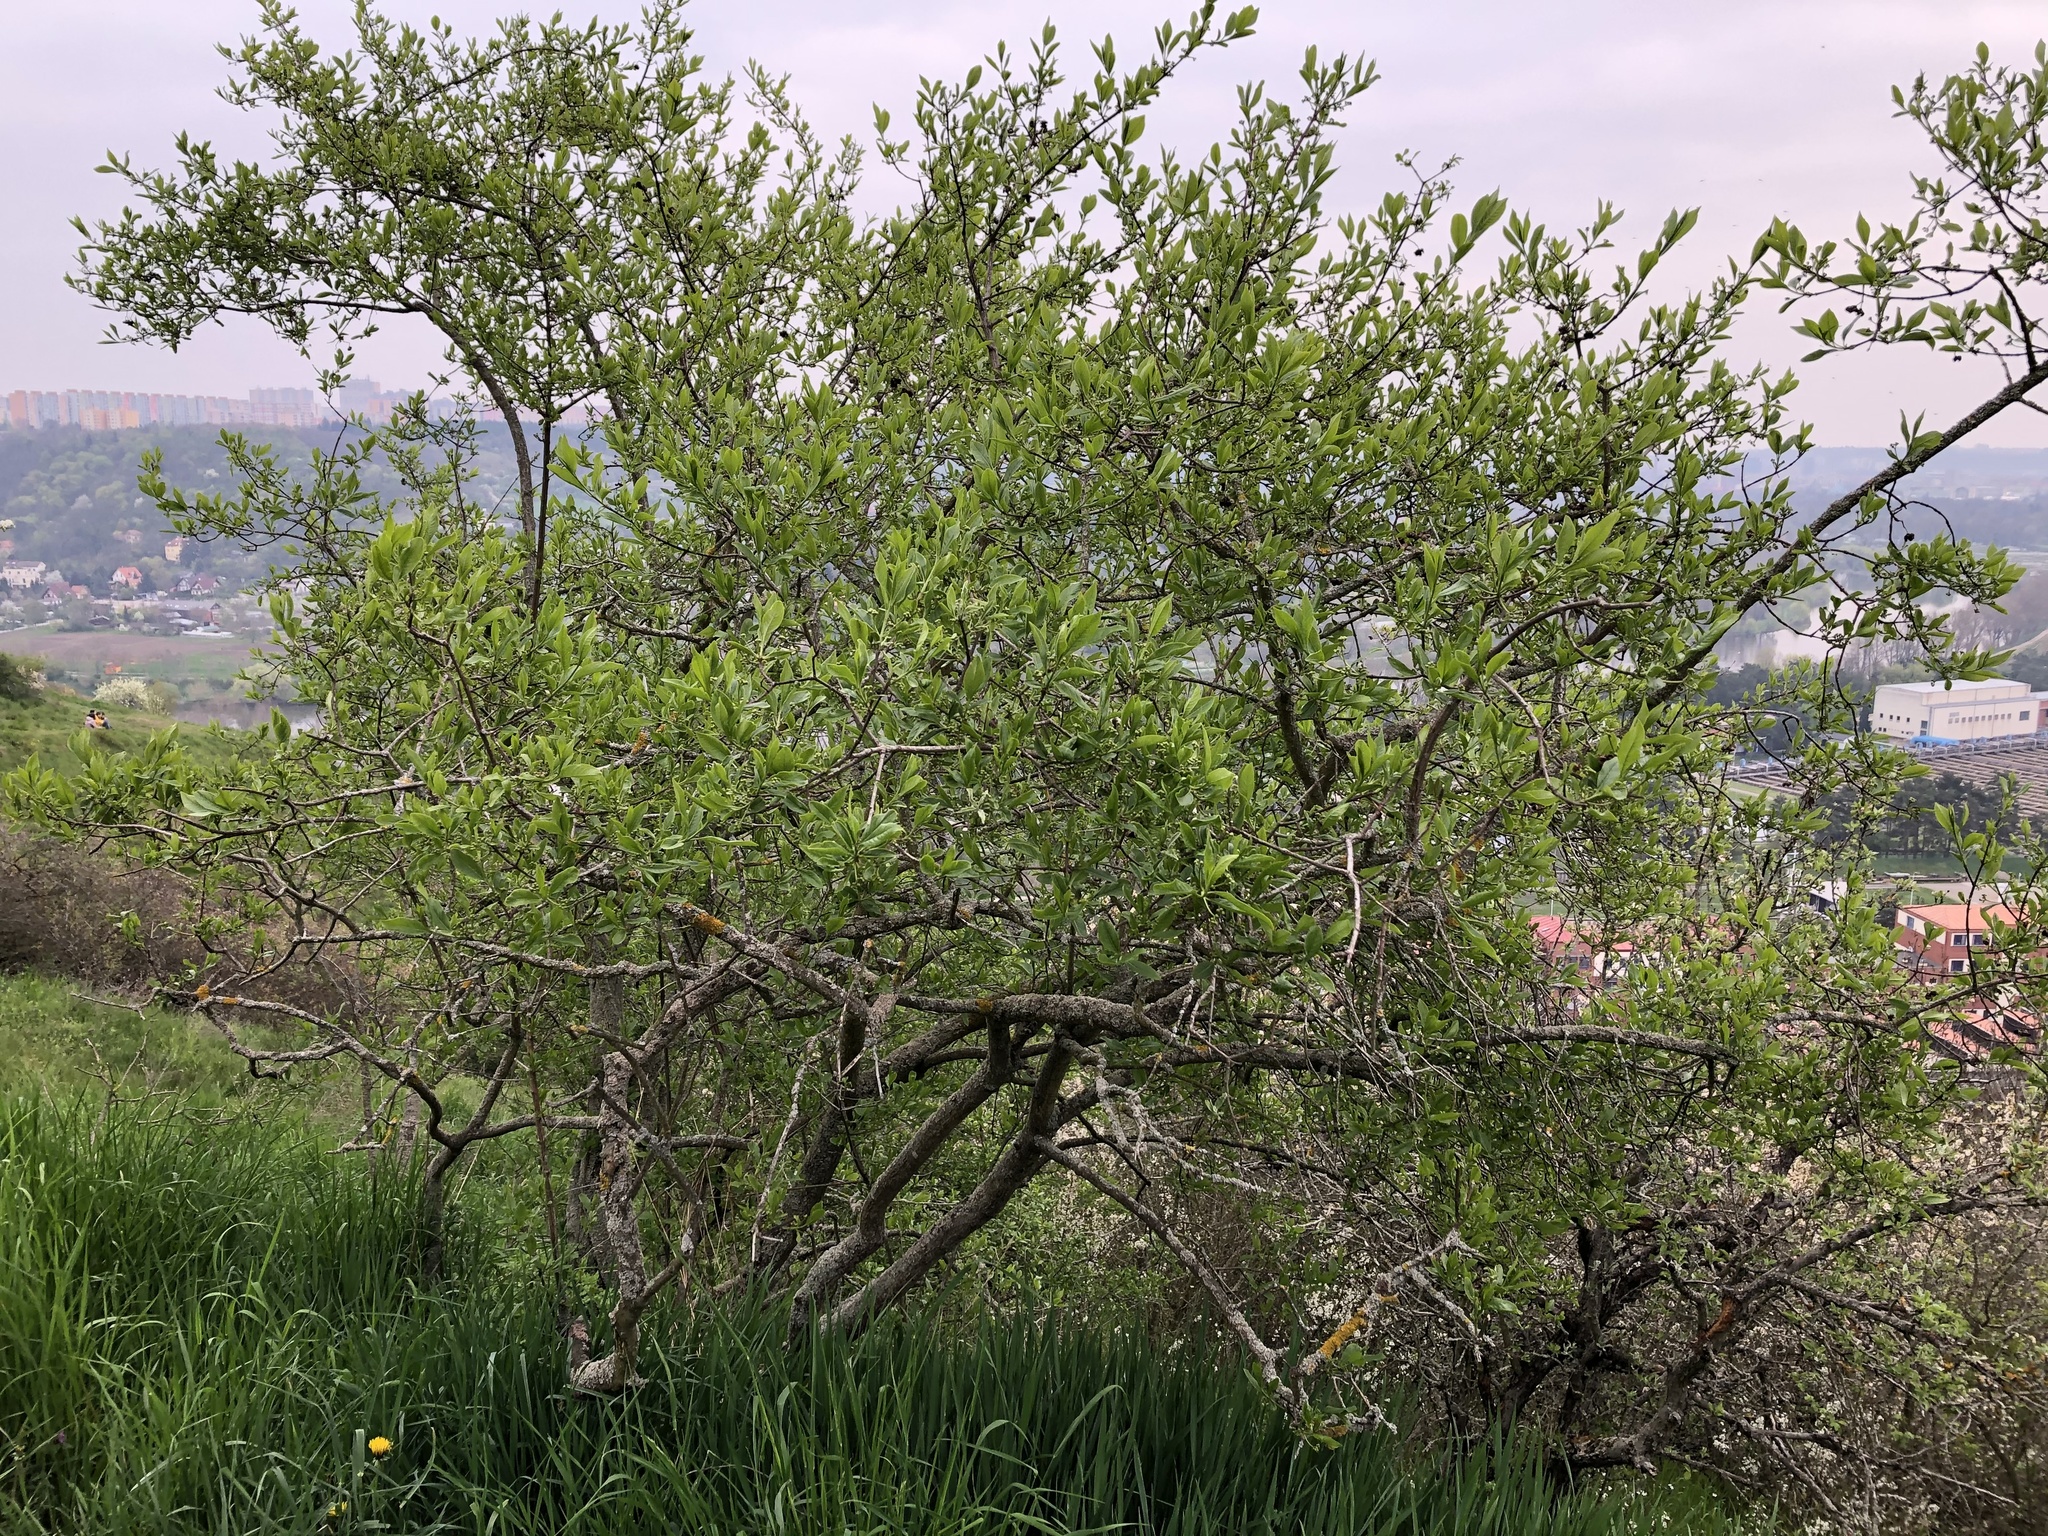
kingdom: Plantae
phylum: Tracheophyta
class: Magnoliopsida
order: Celastrales
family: Celastraceae
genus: Euonymus
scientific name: Euonymus europaeus
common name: Spindle
